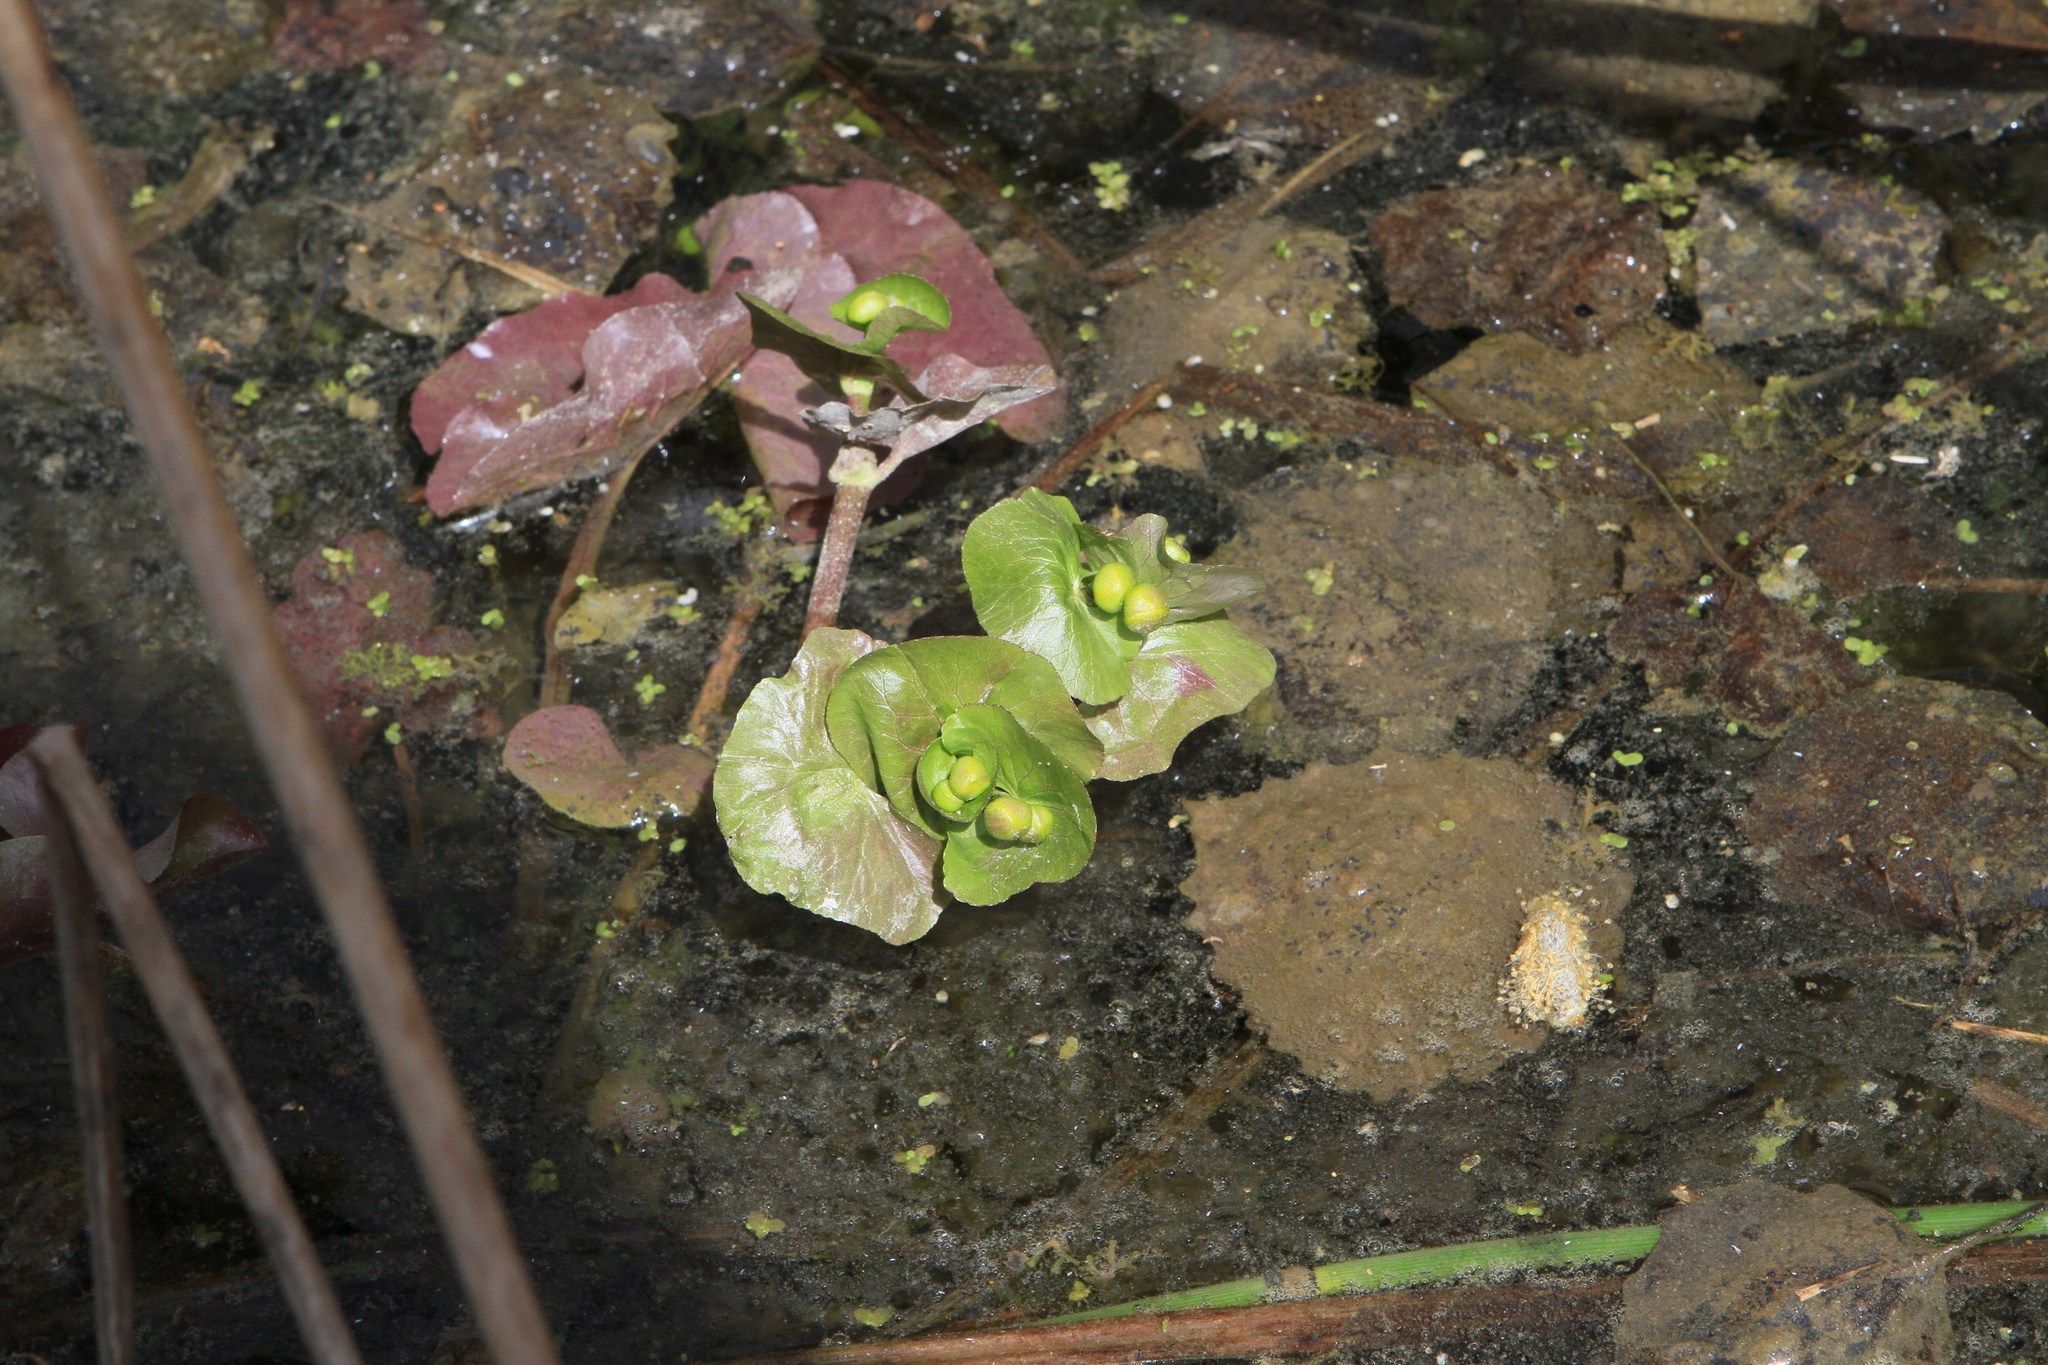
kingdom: Plantae
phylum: Tracheophyta
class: Magnoliopsida
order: Ranunculales
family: Ranunculaceae
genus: Caltha
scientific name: Caltha palustris
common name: Marsh marigold
